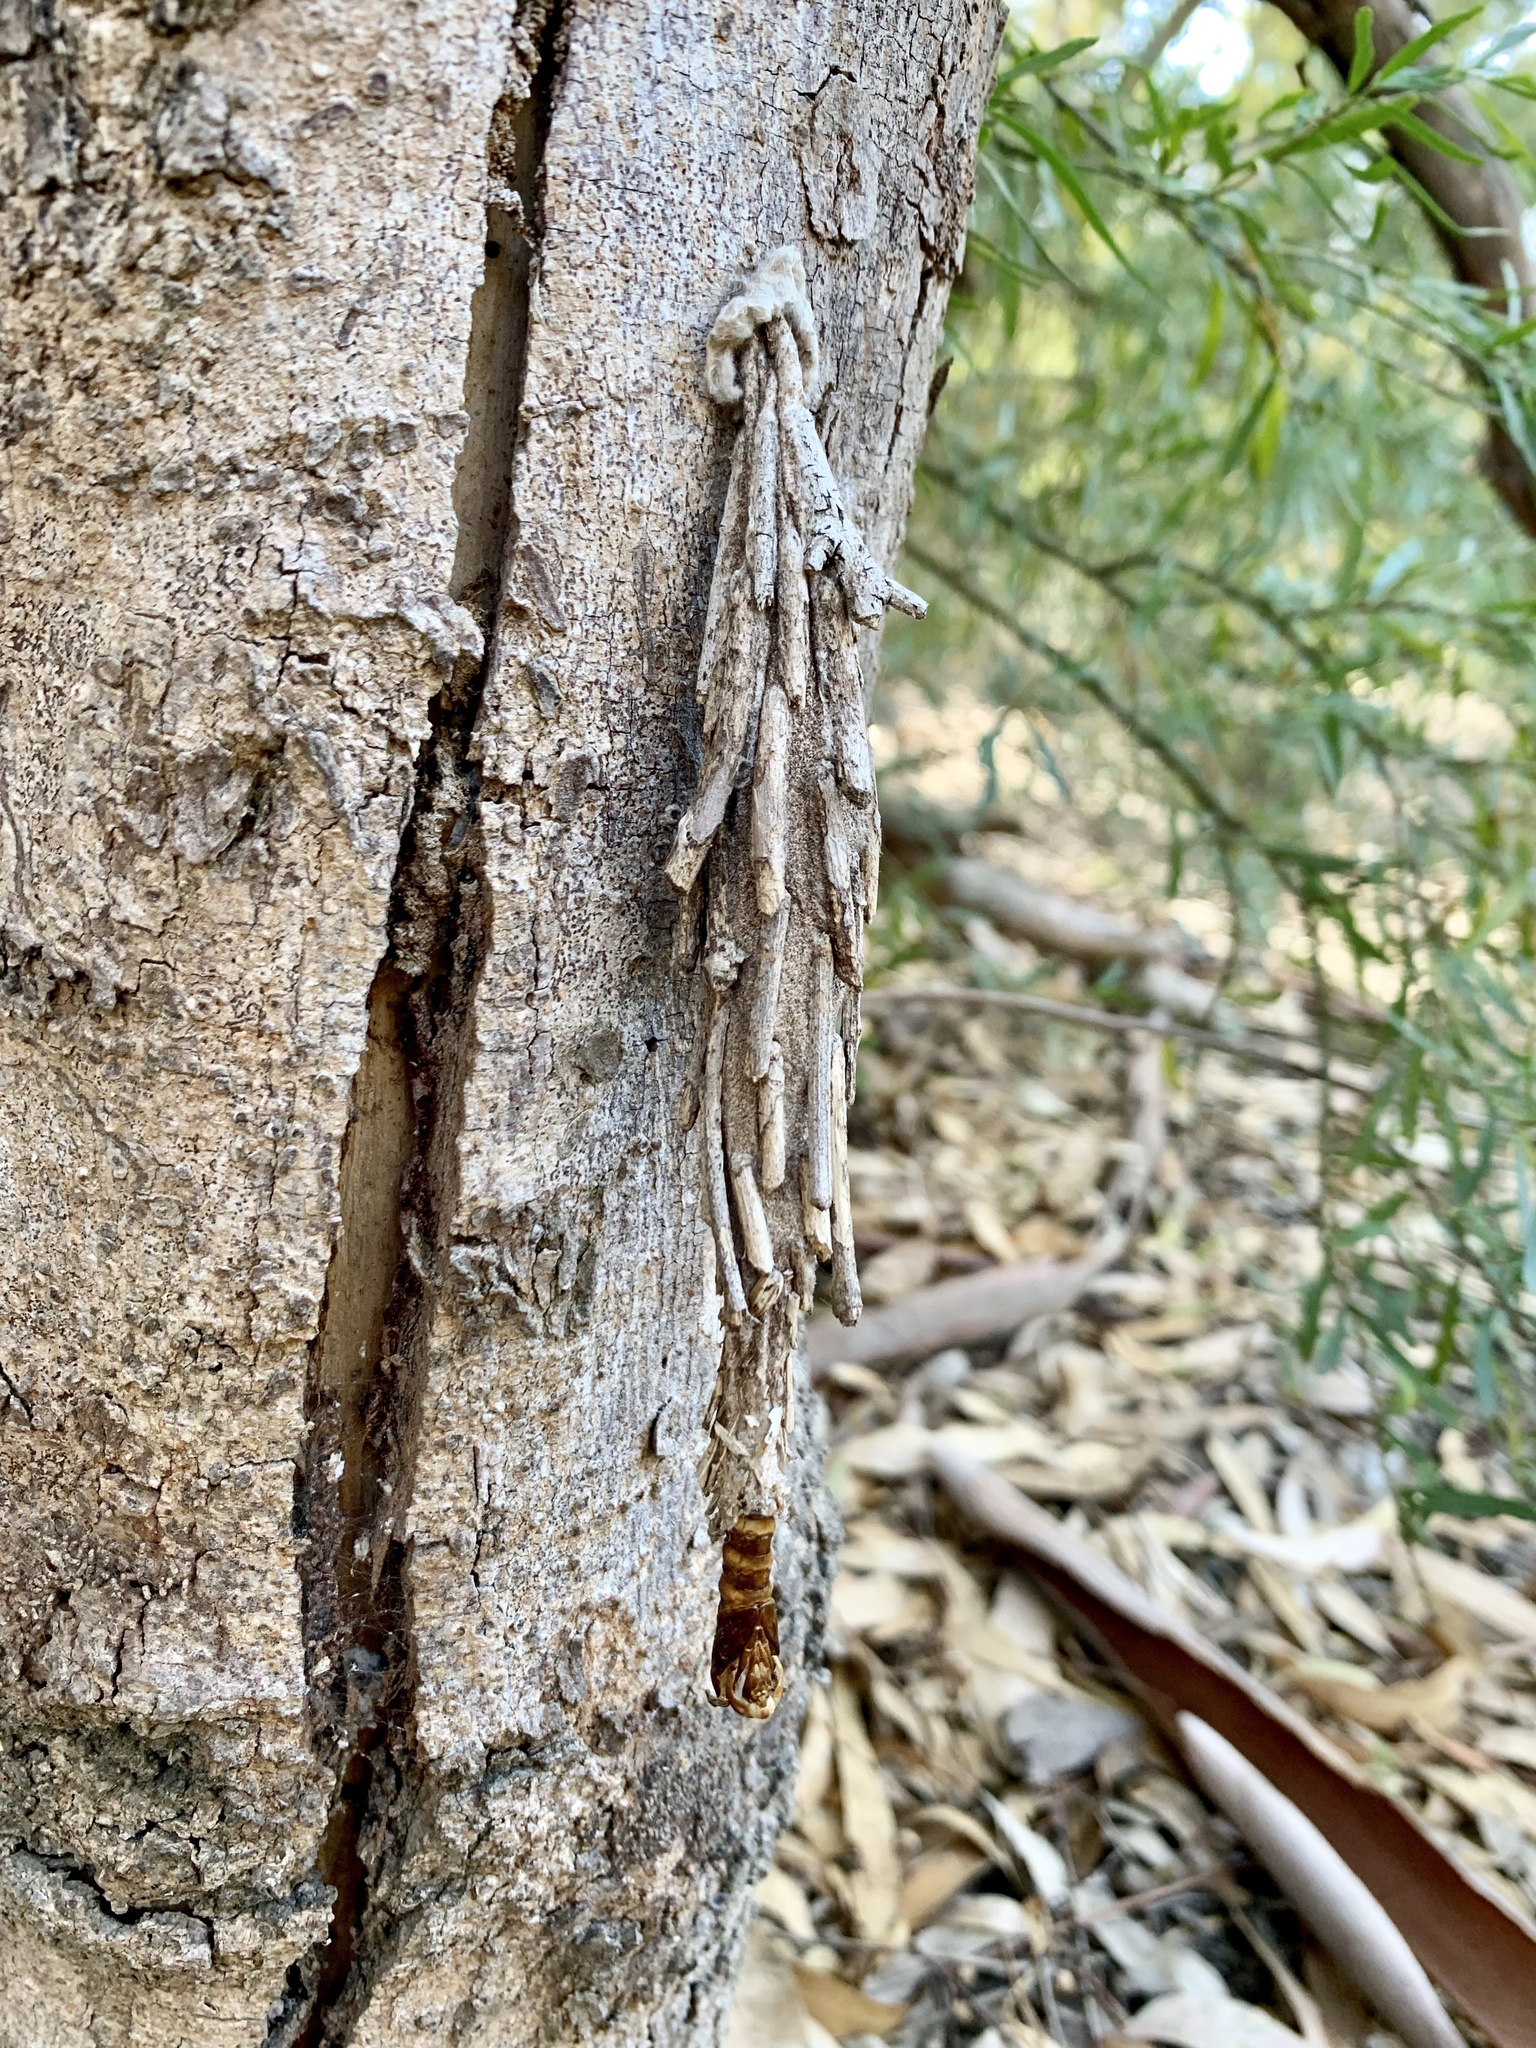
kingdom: Animalia
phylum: Arthropoda
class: Insecta
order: Lepidoptera
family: Psychidae
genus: Metura
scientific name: Metura elongatus
